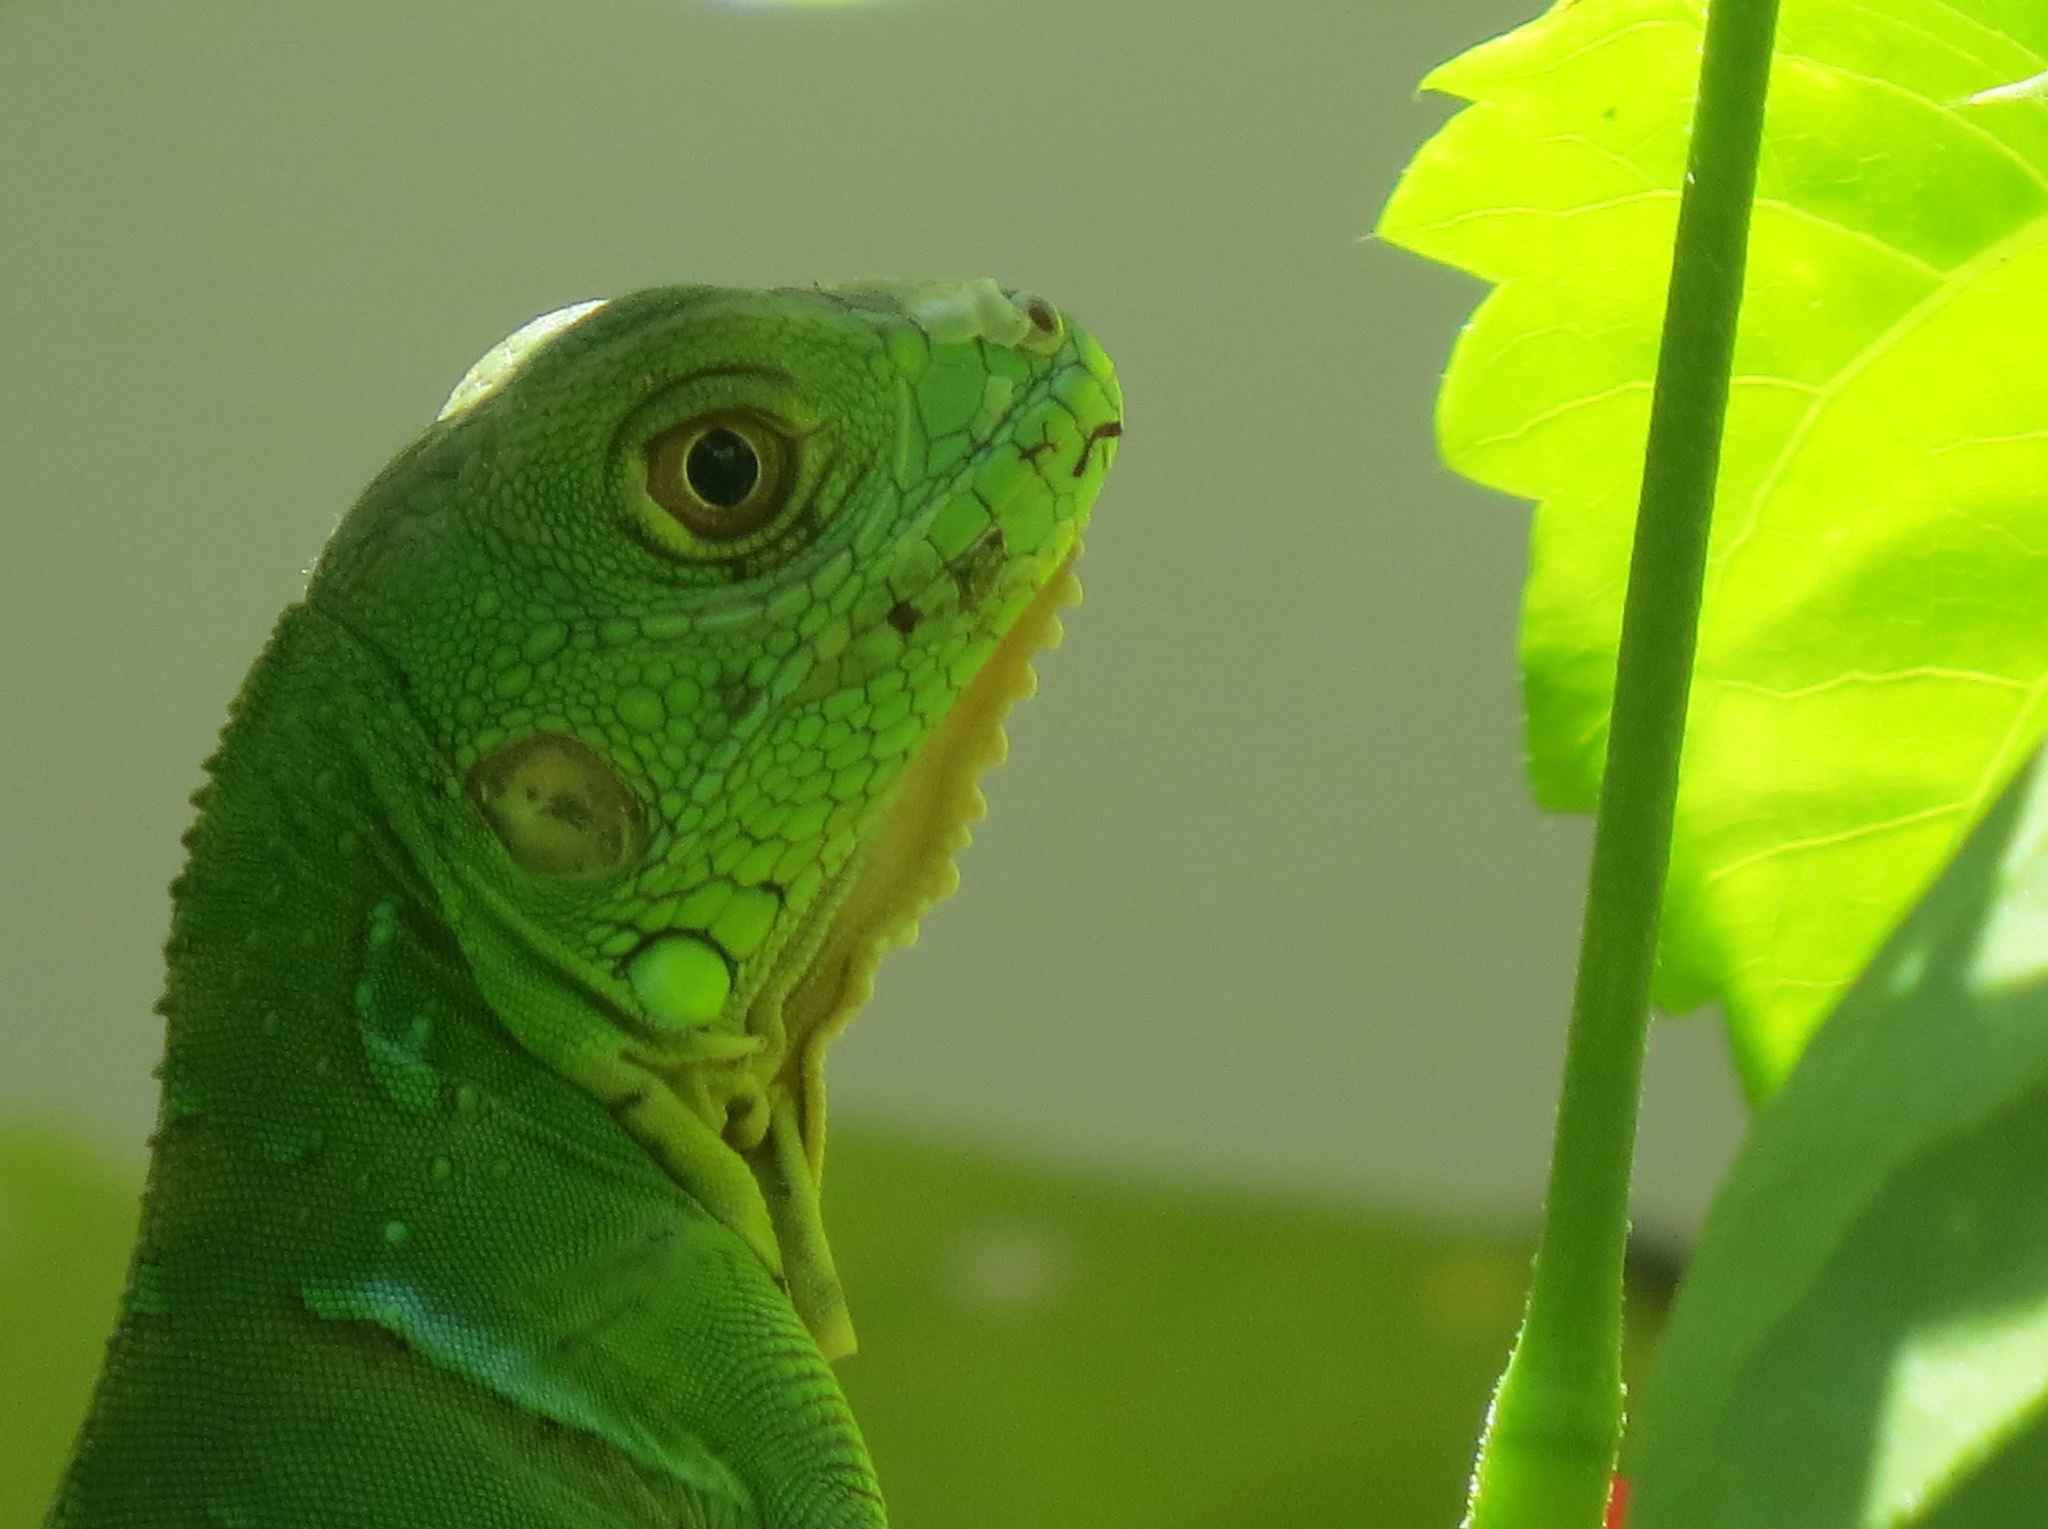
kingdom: Animalia
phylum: Chordata
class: Squamata
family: Iguanidae
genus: Iguana
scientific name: Iguana iguana
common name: Green iguana
